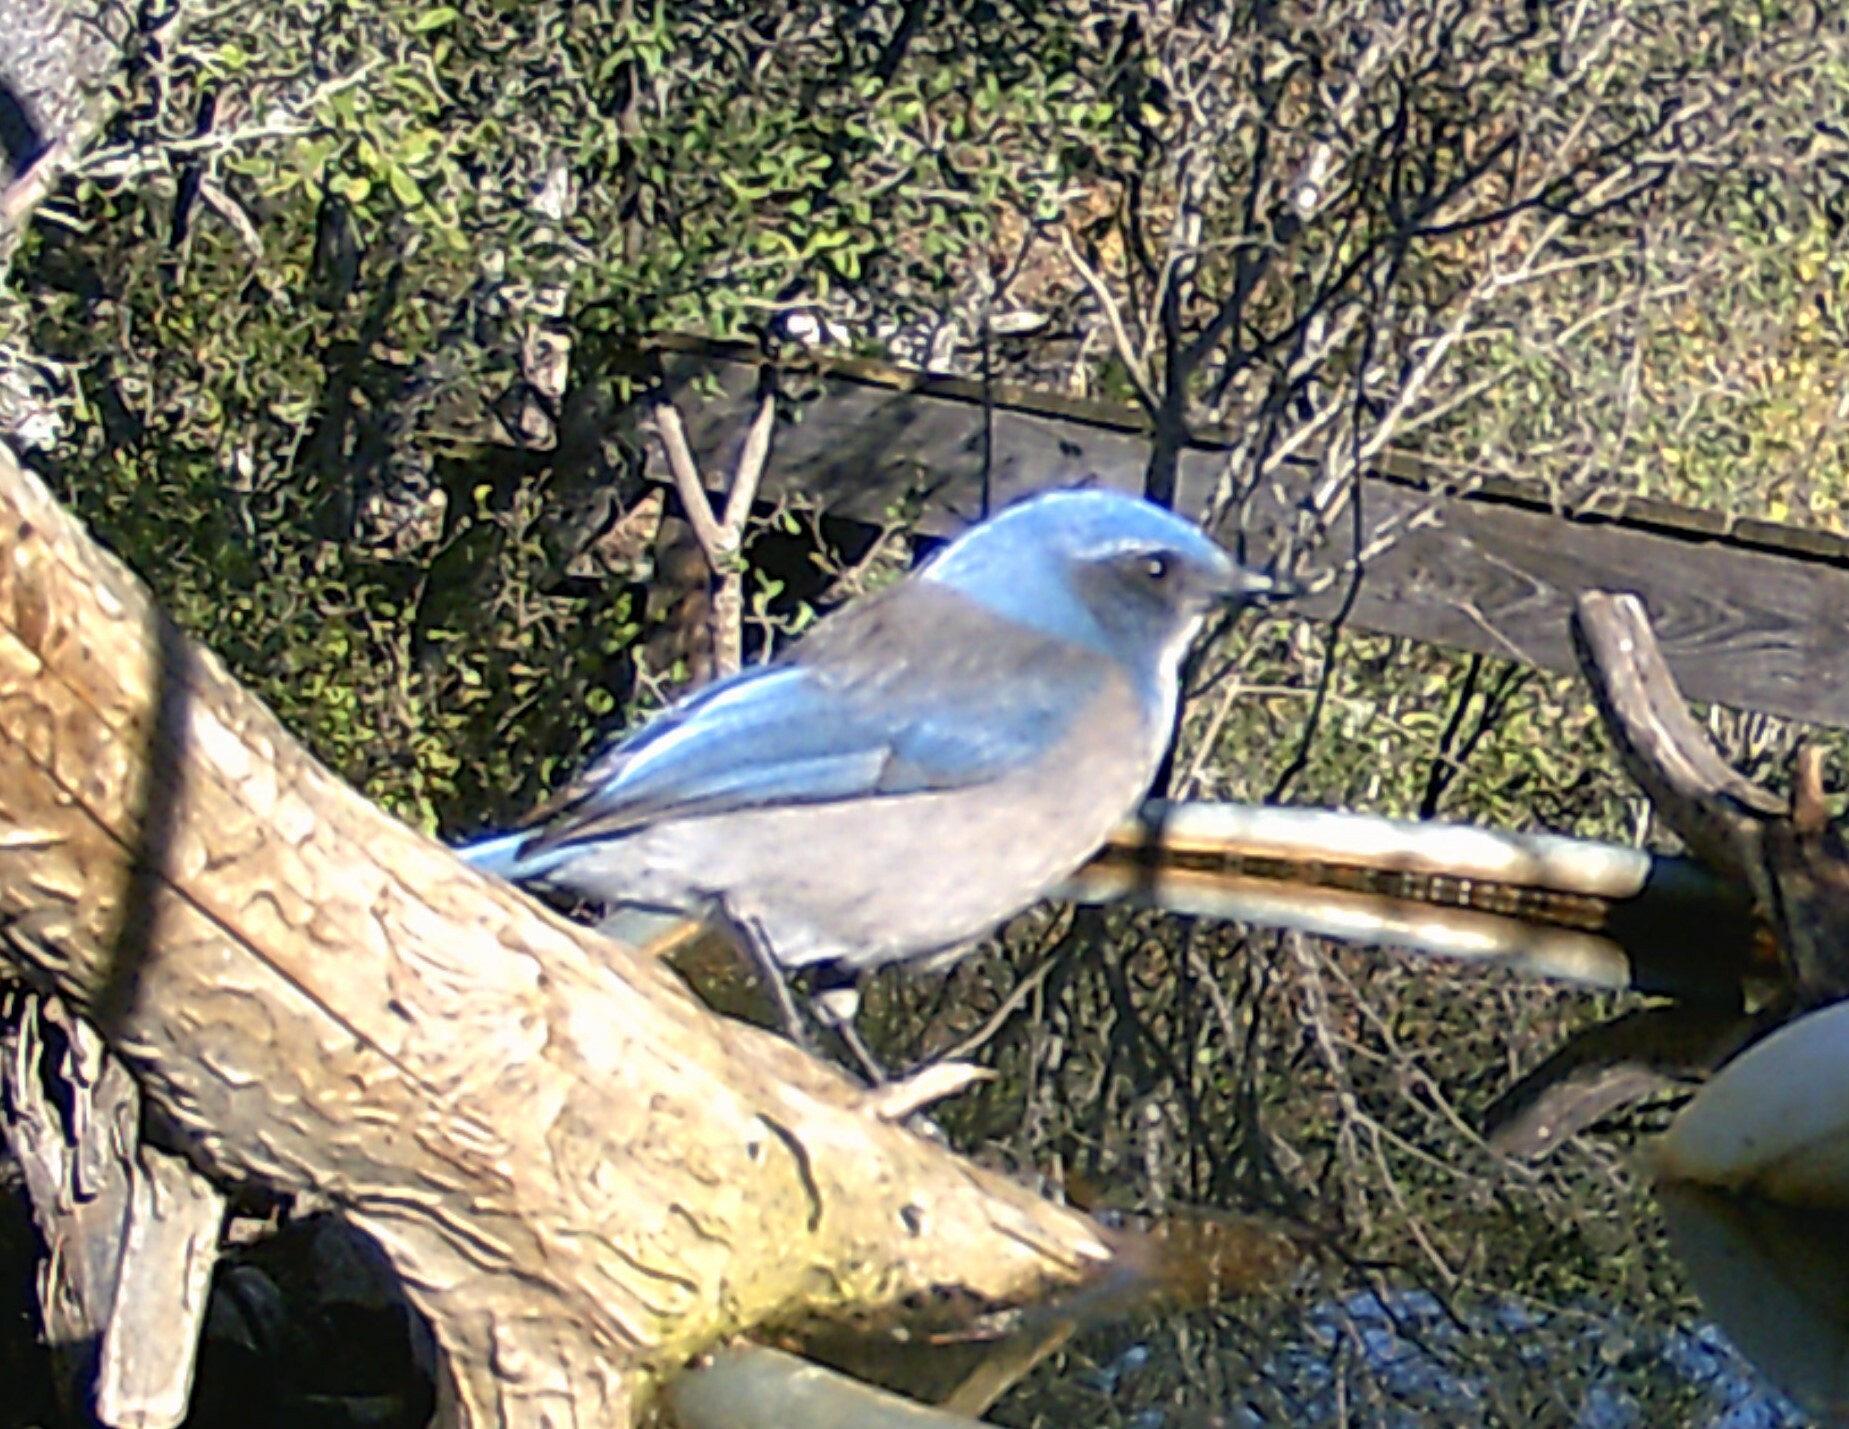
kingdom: Animalia
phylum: Chordata
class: Aves
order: Passeriformes
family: Corvidae
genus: Aphelocoma
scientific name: Aphelocoma woodhouseii
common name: Woodhouse's scrub-jay
